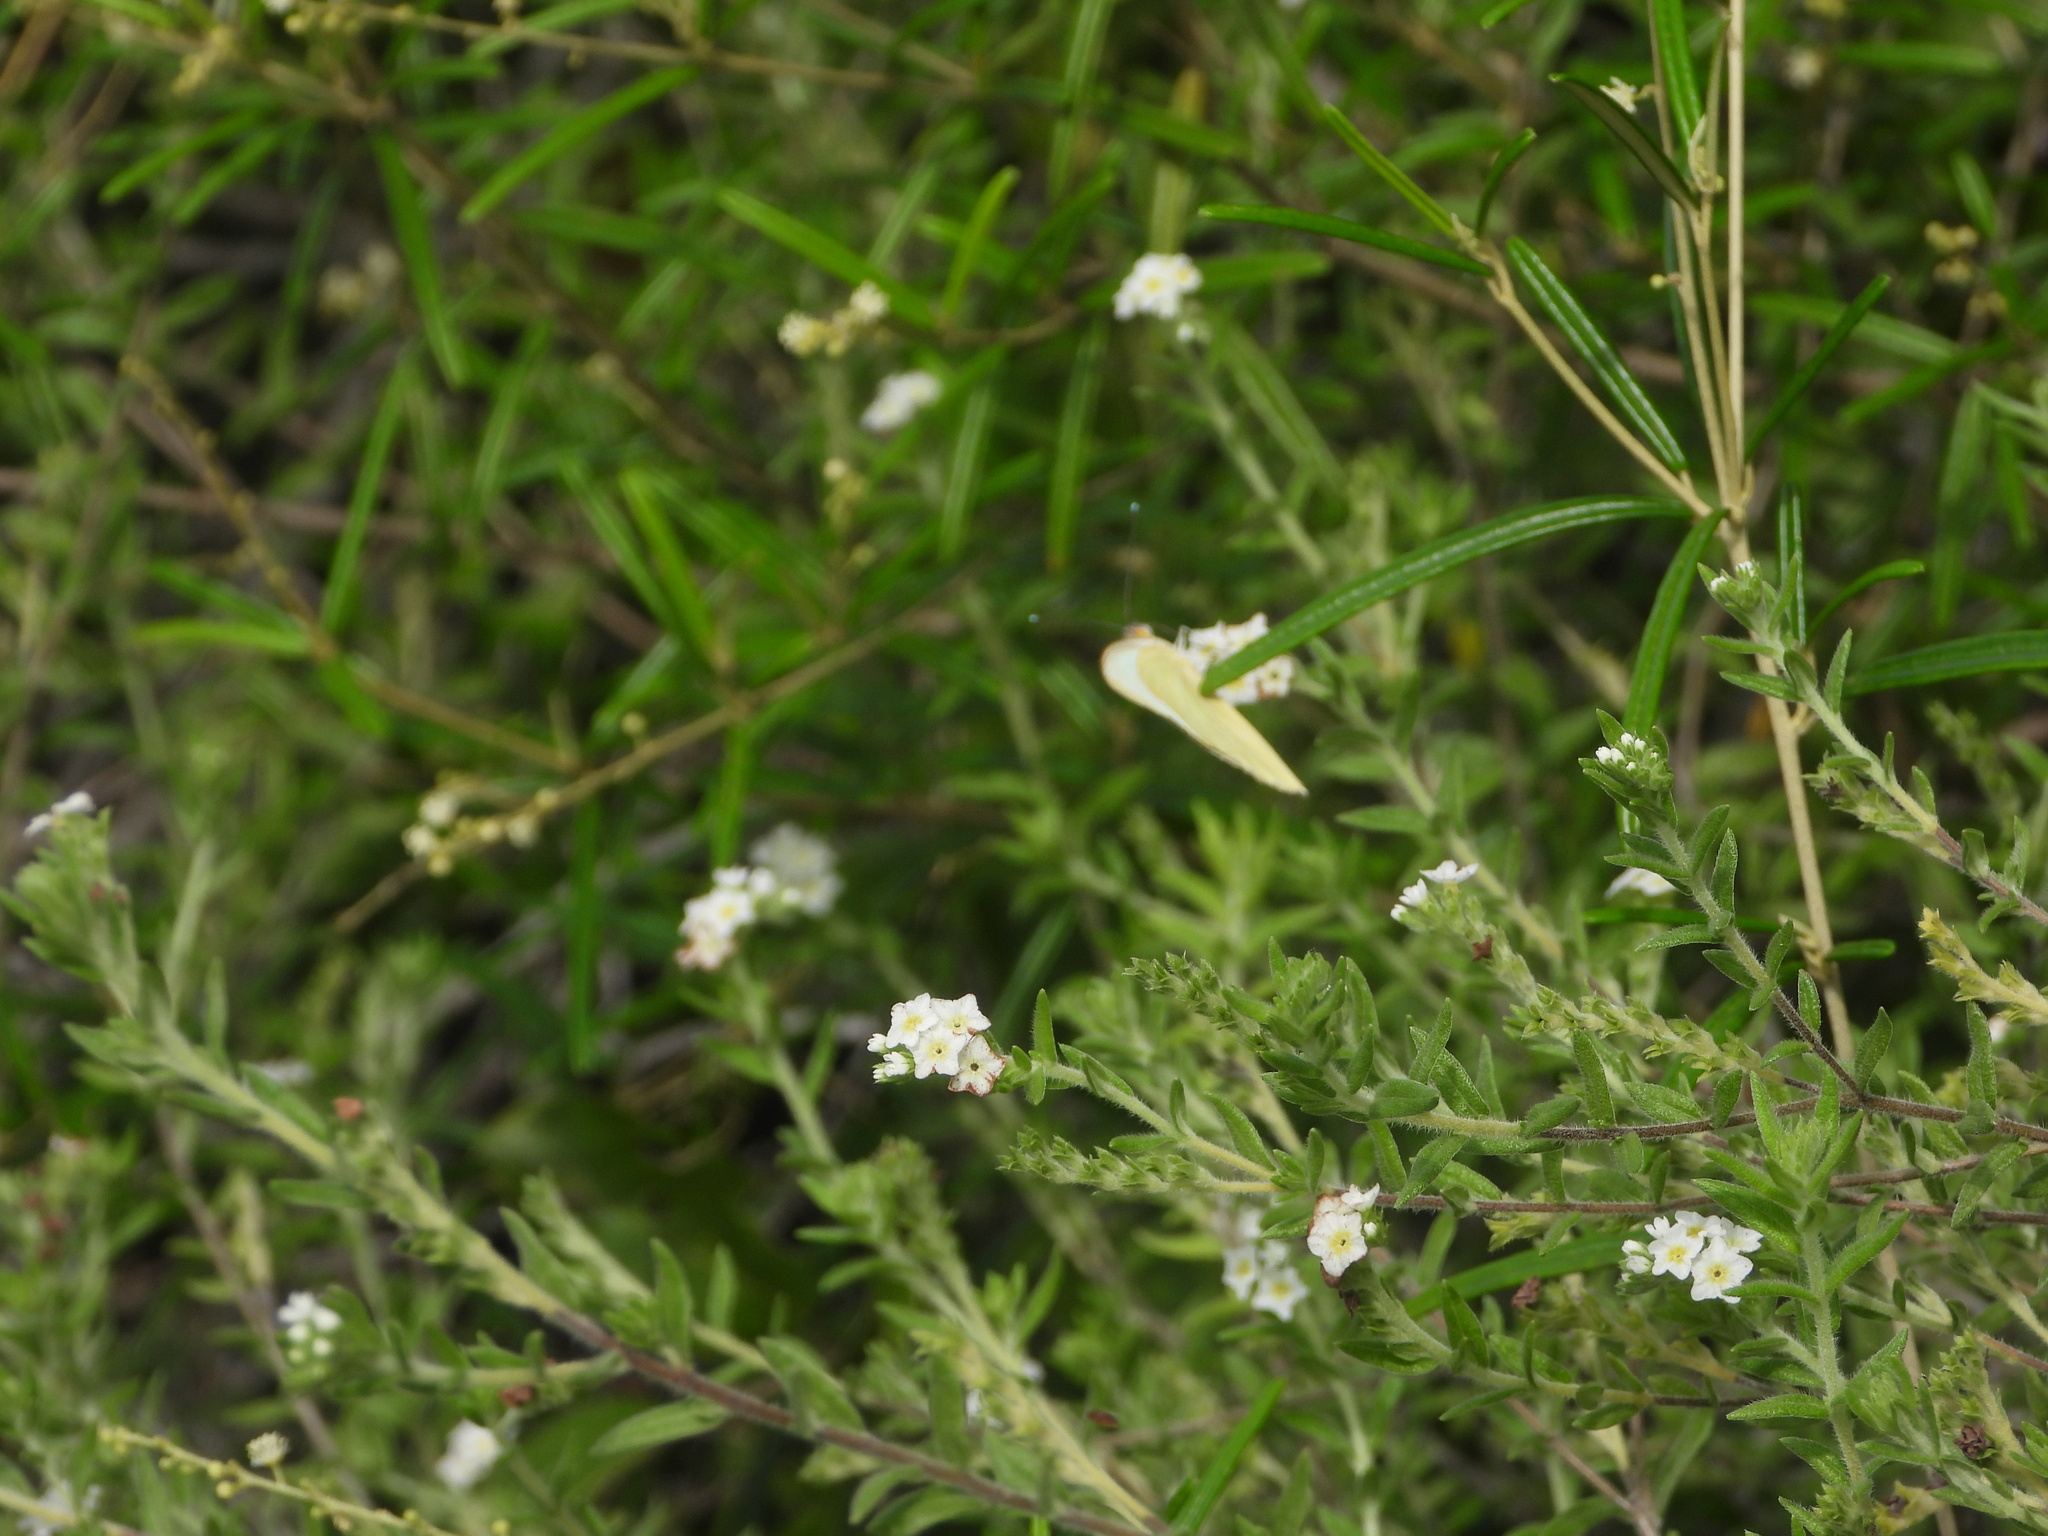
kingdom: Animalia
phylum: Arthropoda
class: Insecta
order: Lepidoptera
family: Pieridae
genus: Ascia
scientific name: Ascia monuste
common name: Great southern white
